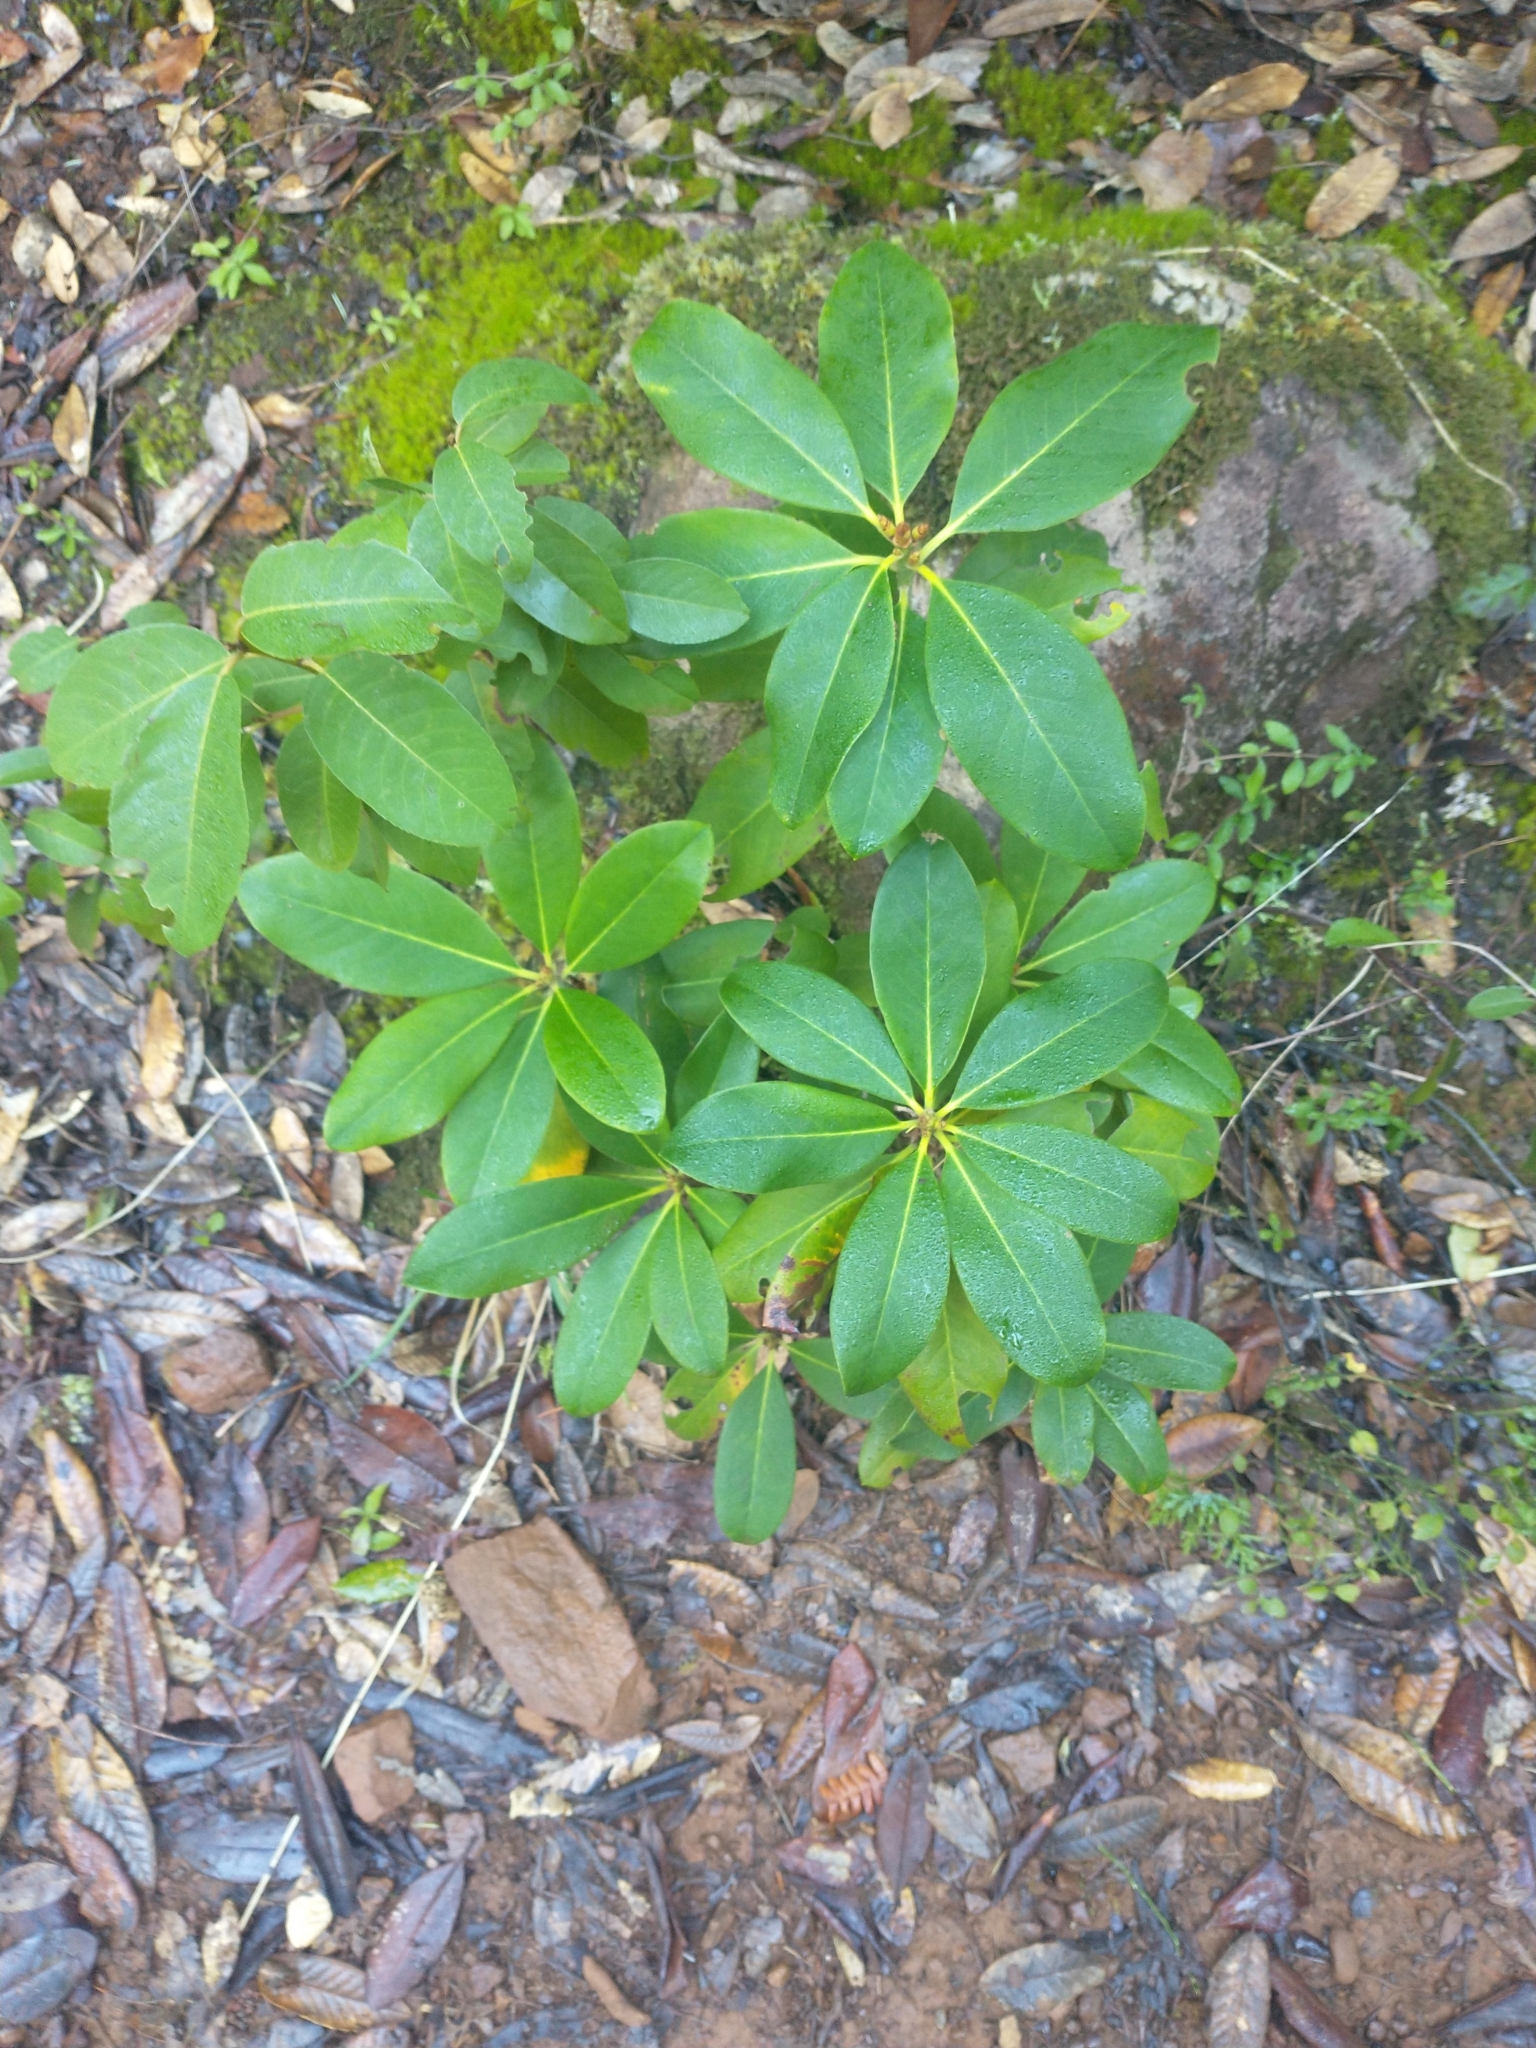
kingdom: Plantae
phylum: Tracheophyta
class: Magnoliopsida
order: Ericales
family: Ericaceae
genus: Rhododendron
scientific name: Rhododendron macrophyllum
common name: California rose bay
